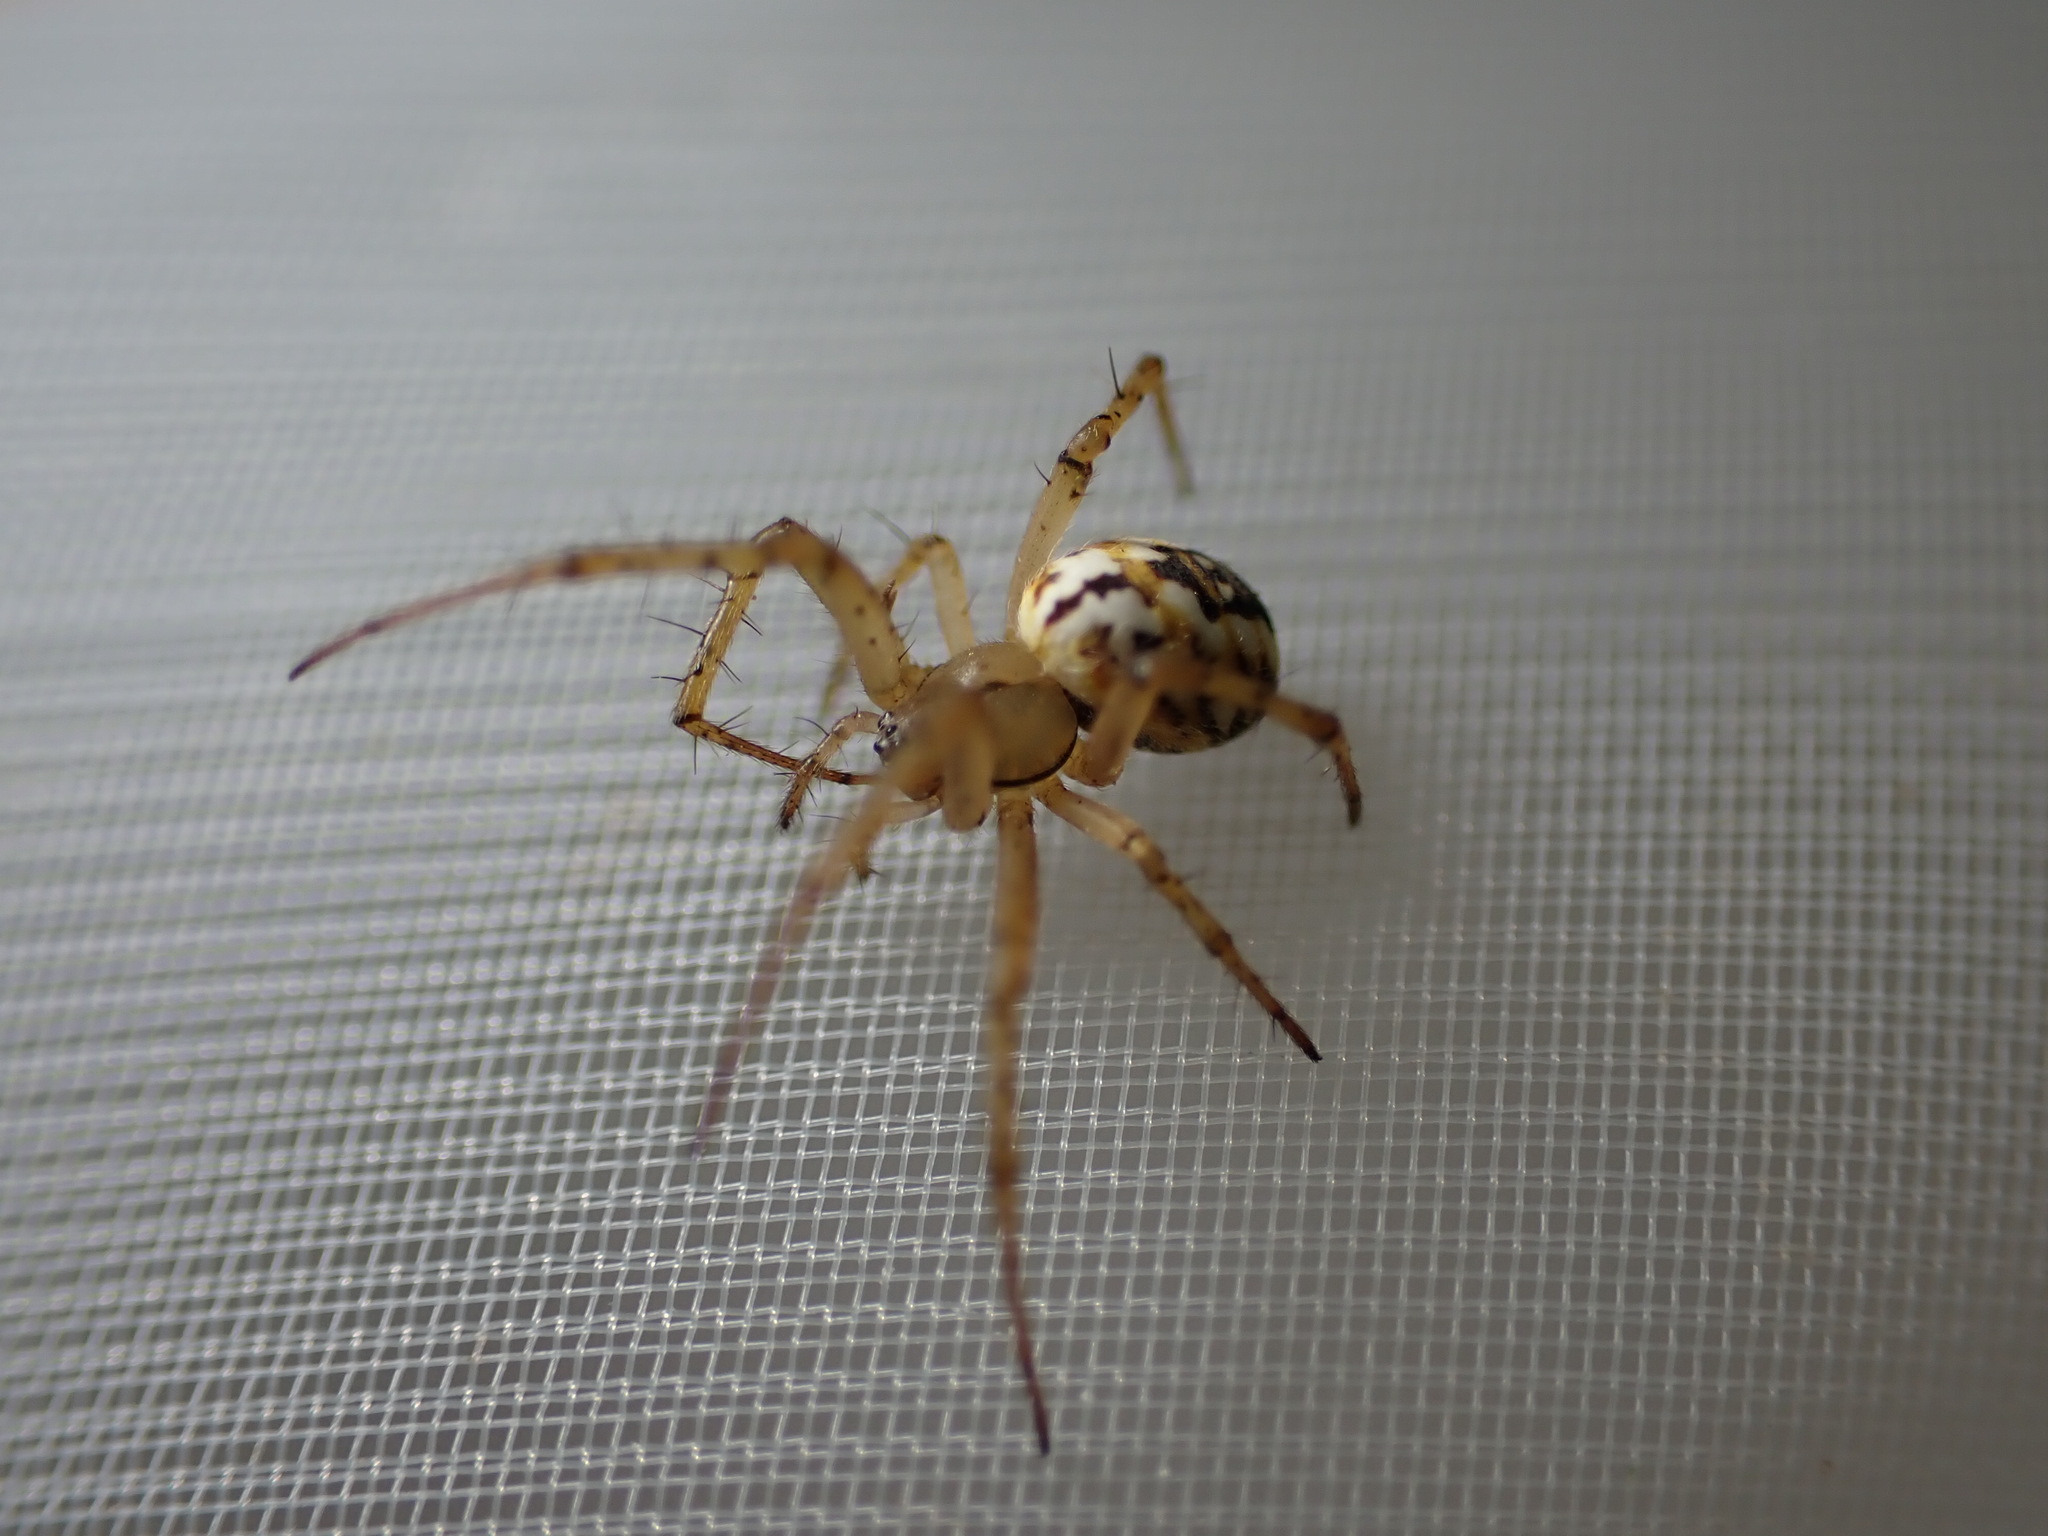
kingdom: Animalia
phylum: Arthropoda
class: Arachnida
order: Araneae
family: Araneidae
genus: Mangora
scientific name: Mangora acalypha
